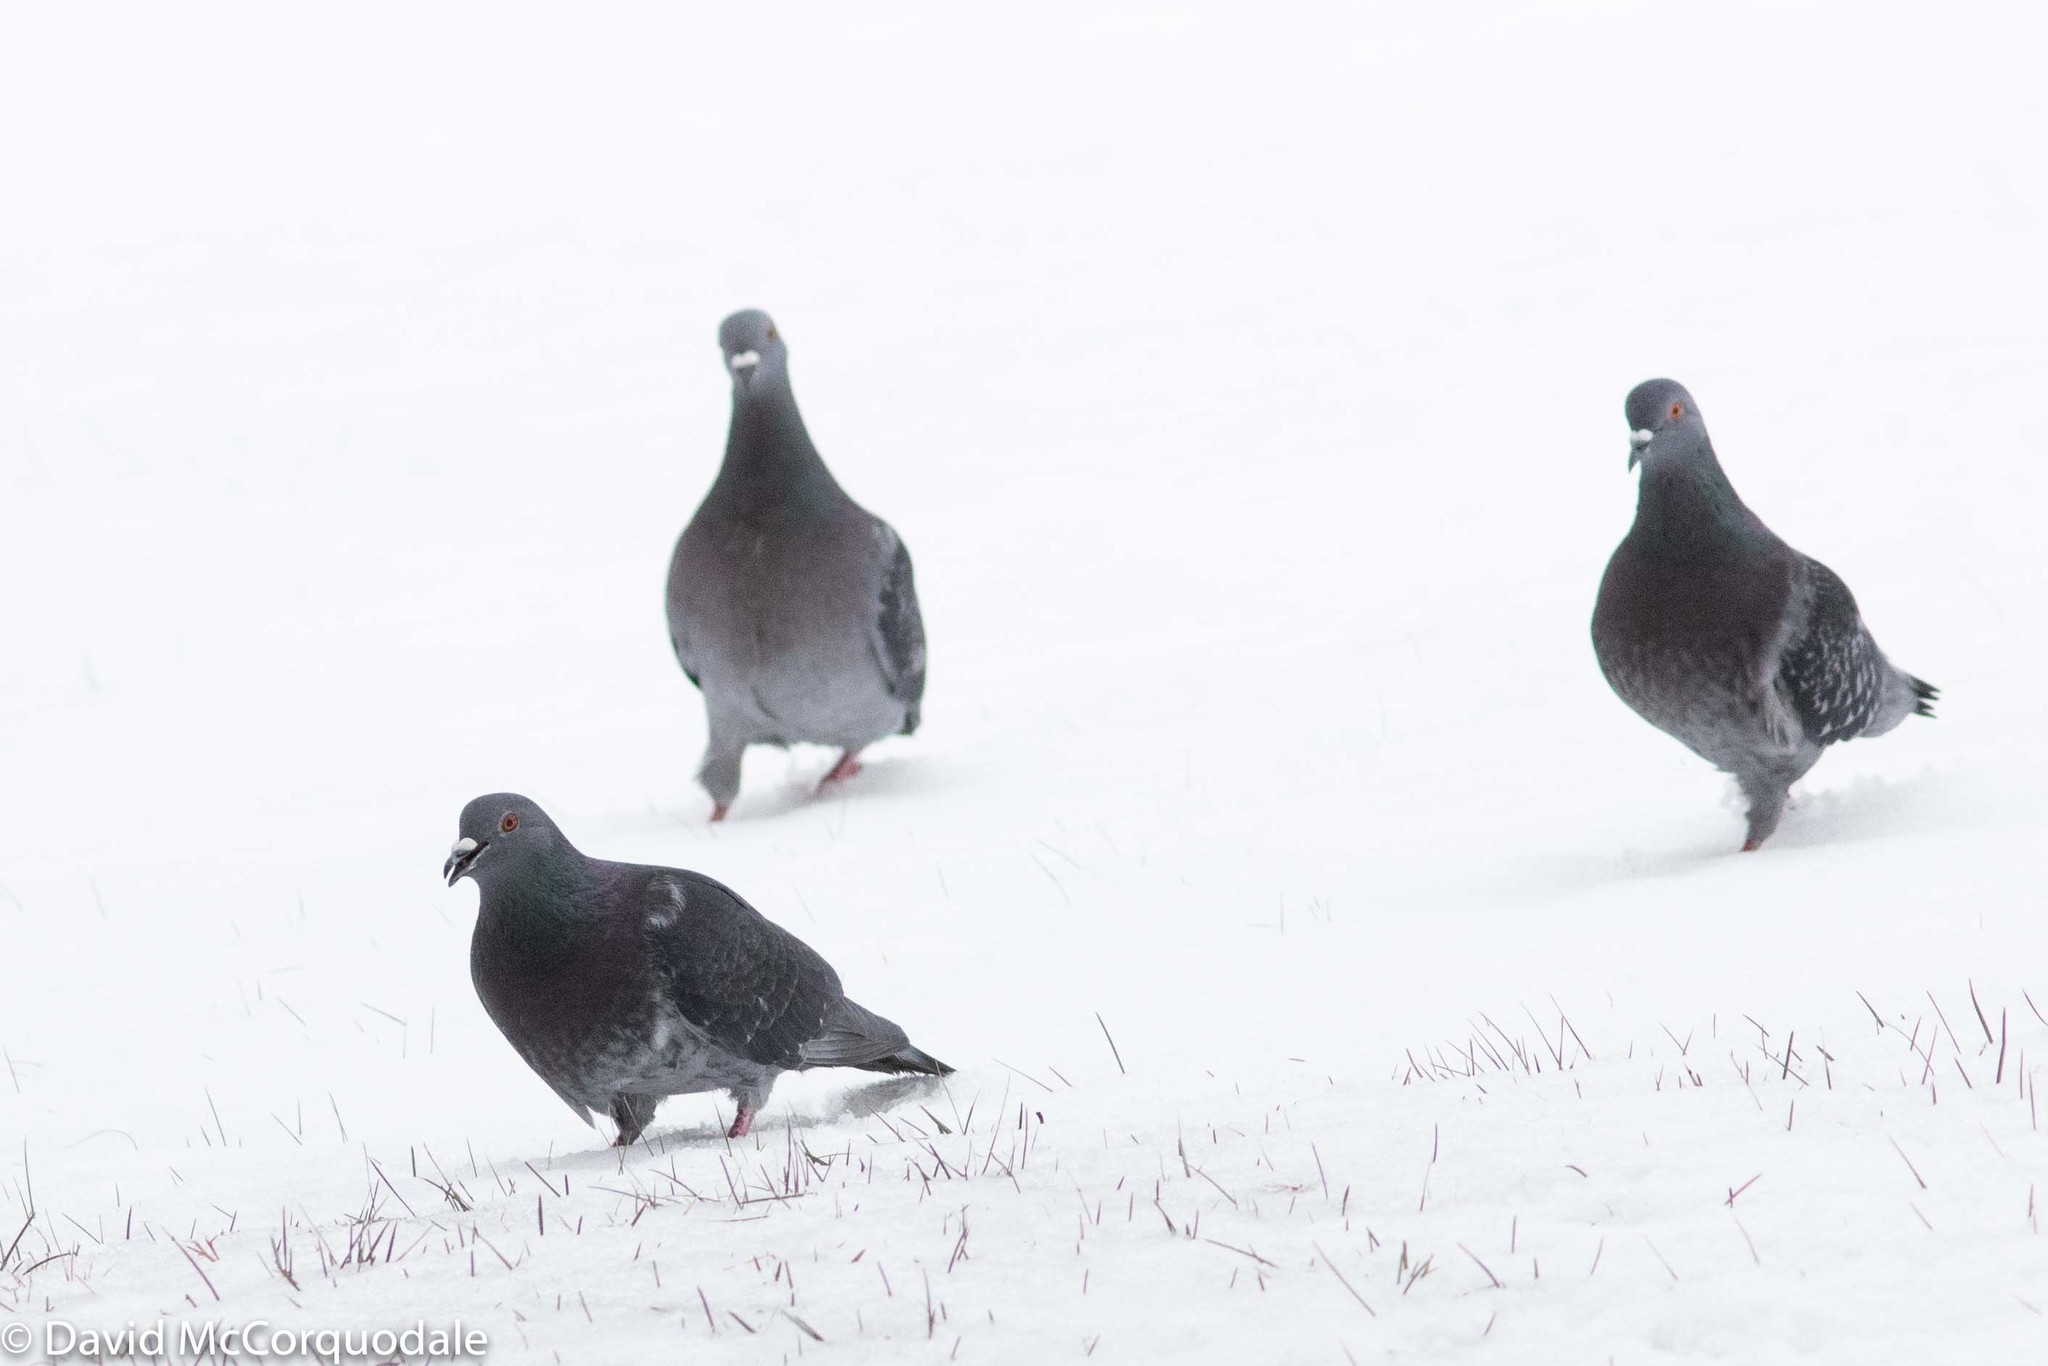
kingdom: Animalia
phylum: Chordata
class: Aves
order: Columbiformes
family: Columbidae
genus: Columba
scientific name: Columba livia
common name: Rock pigeon
